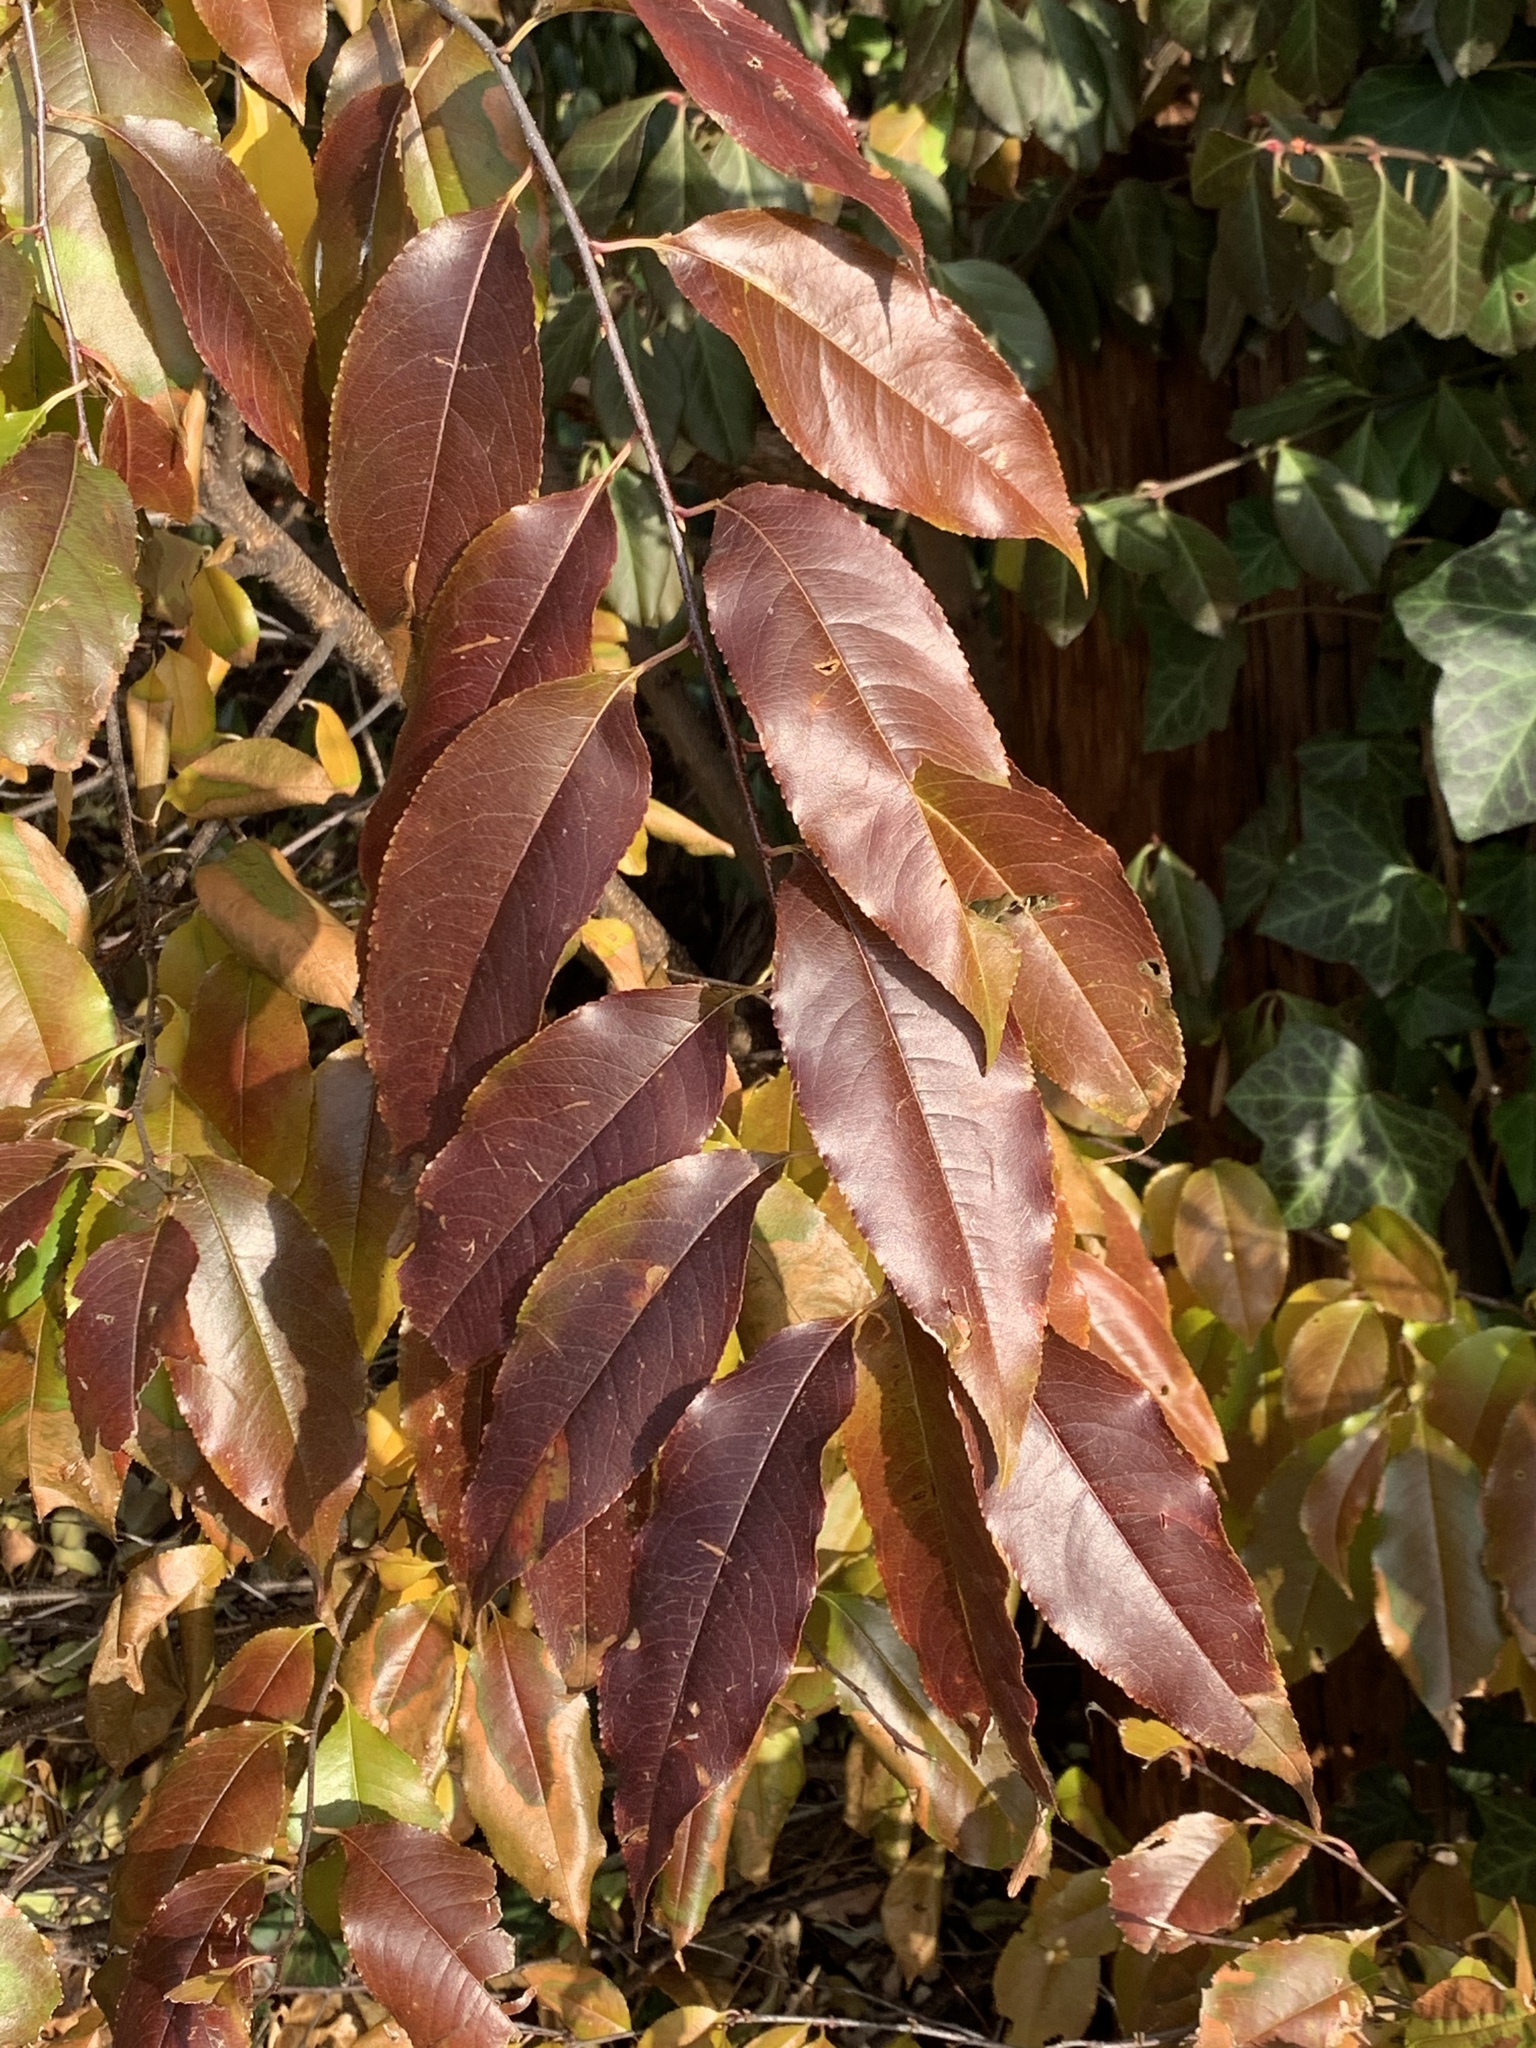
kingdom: Plantae
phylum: Tracheophyta
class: Magnoliopsida
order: Rosales
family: Rosaceae
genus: Prunus
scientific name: Prunus serotina
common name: Black cherry
